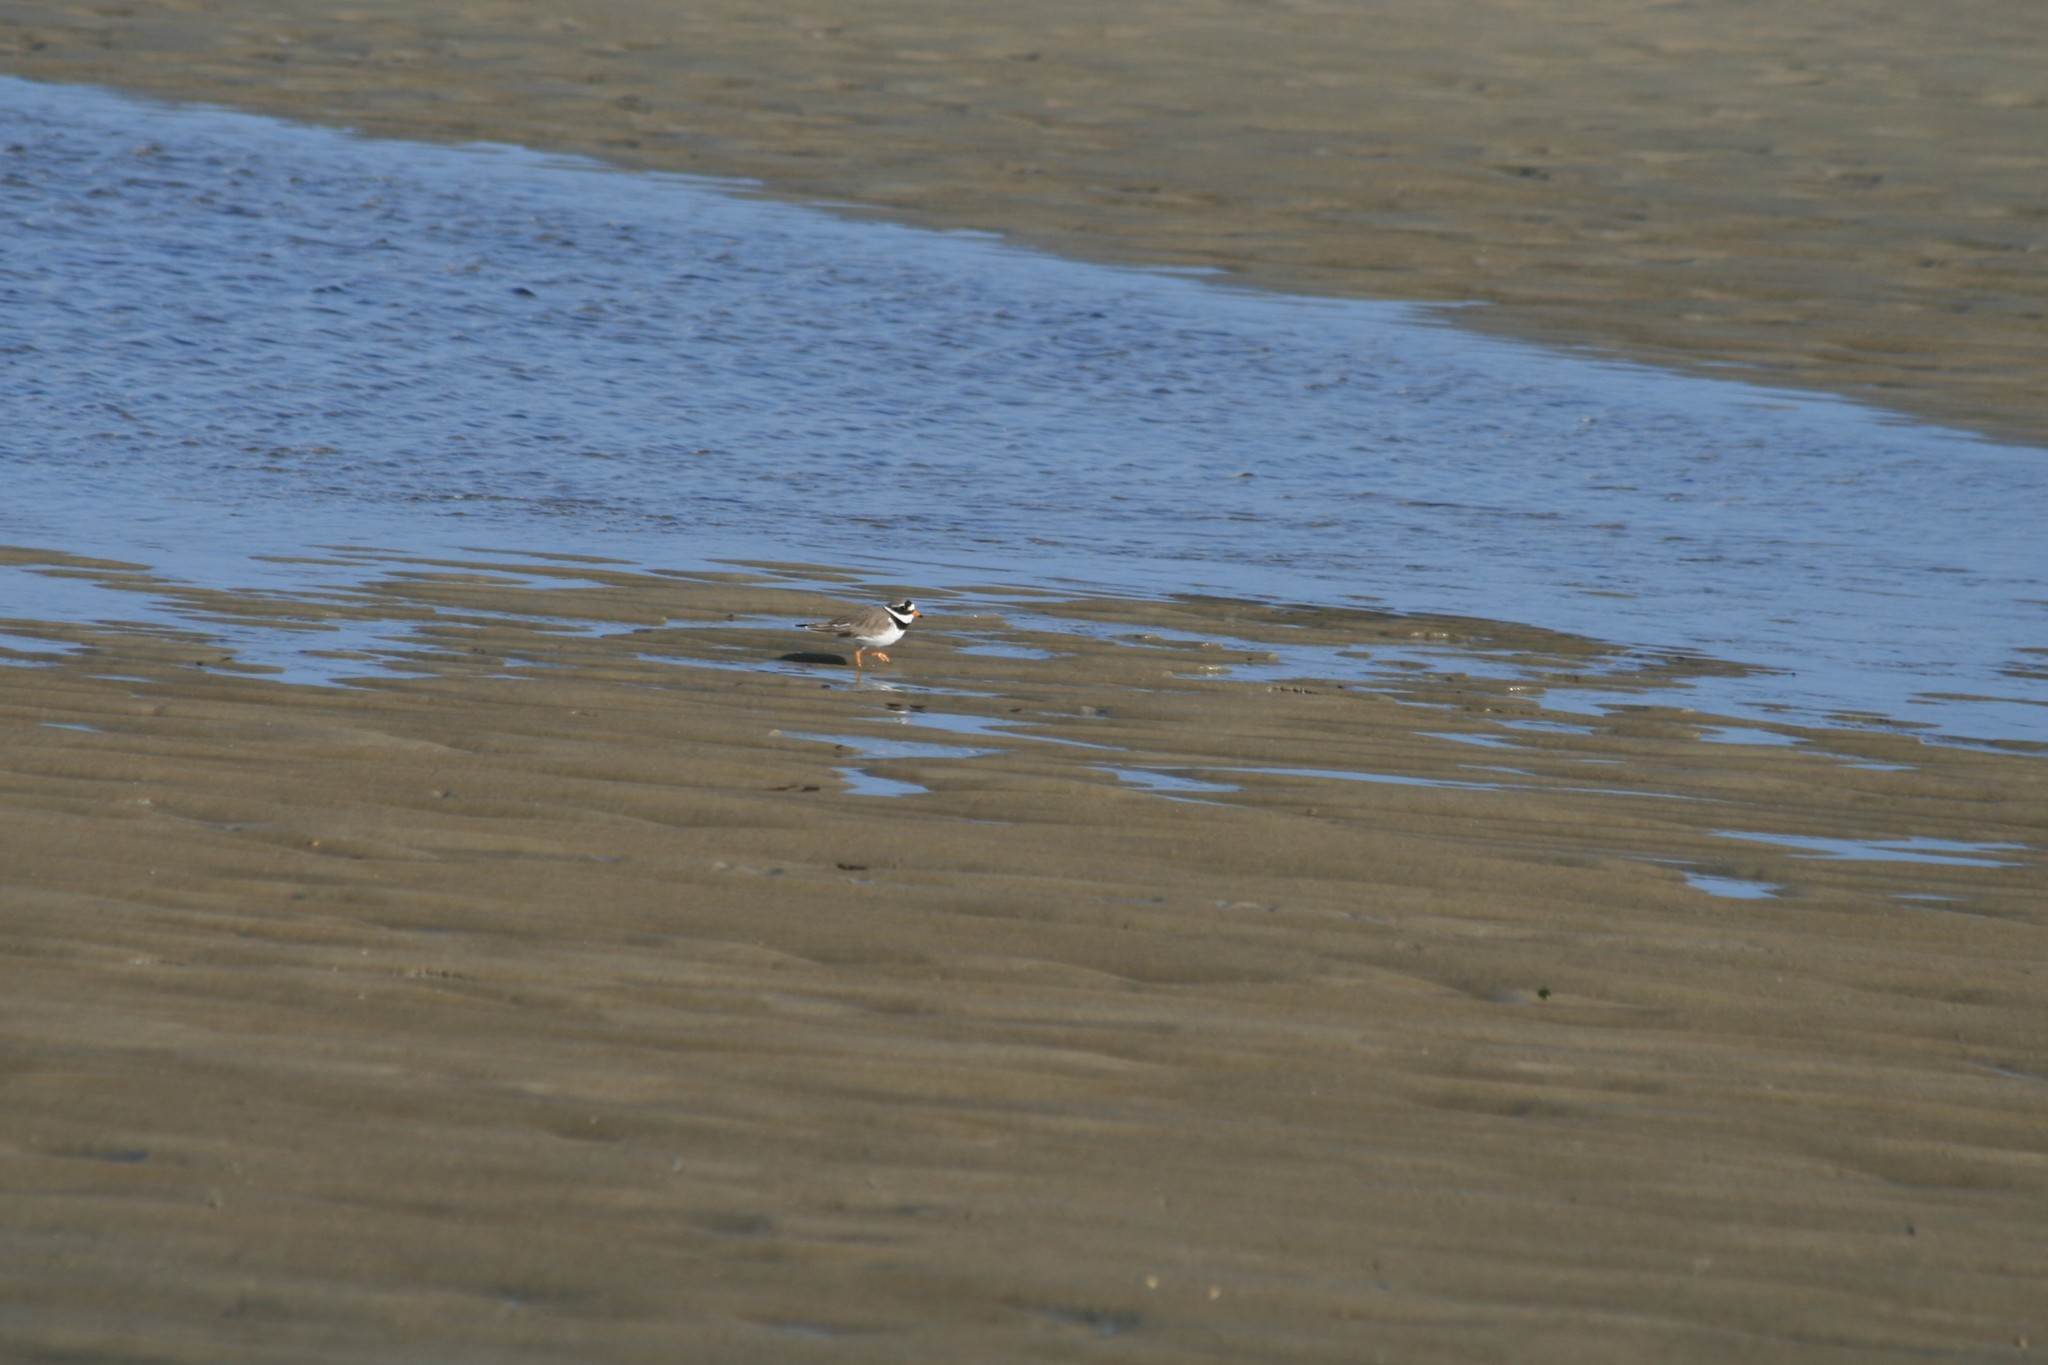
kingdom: Animalia
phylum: Chordata
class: Aves
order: Charadriiformes
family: Charadriidae
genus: Charadrius
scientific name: Charadrius hiaticula
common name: Common ringed plover
